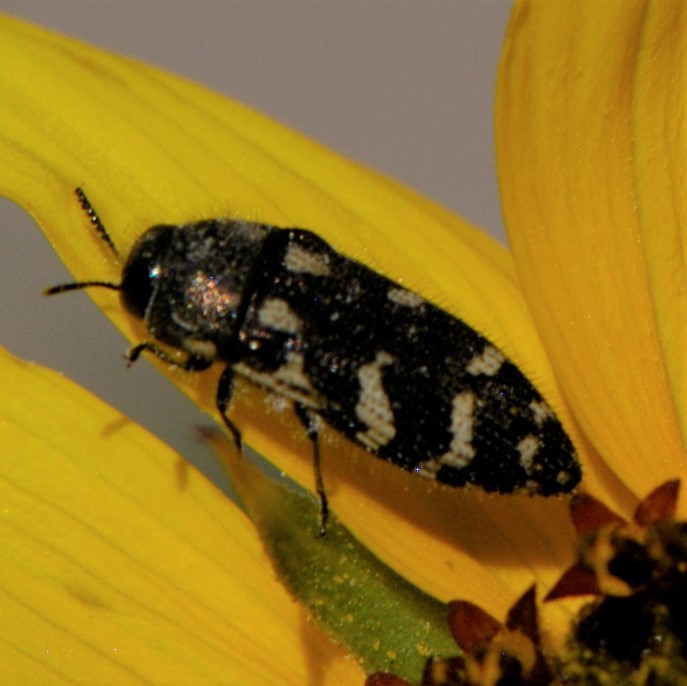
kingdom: Animalia
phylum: Arthropoda
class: Insecta
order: Coleoptera
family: Buprestidae
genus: Acmaeodera
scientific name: Acmaeodera mixta
